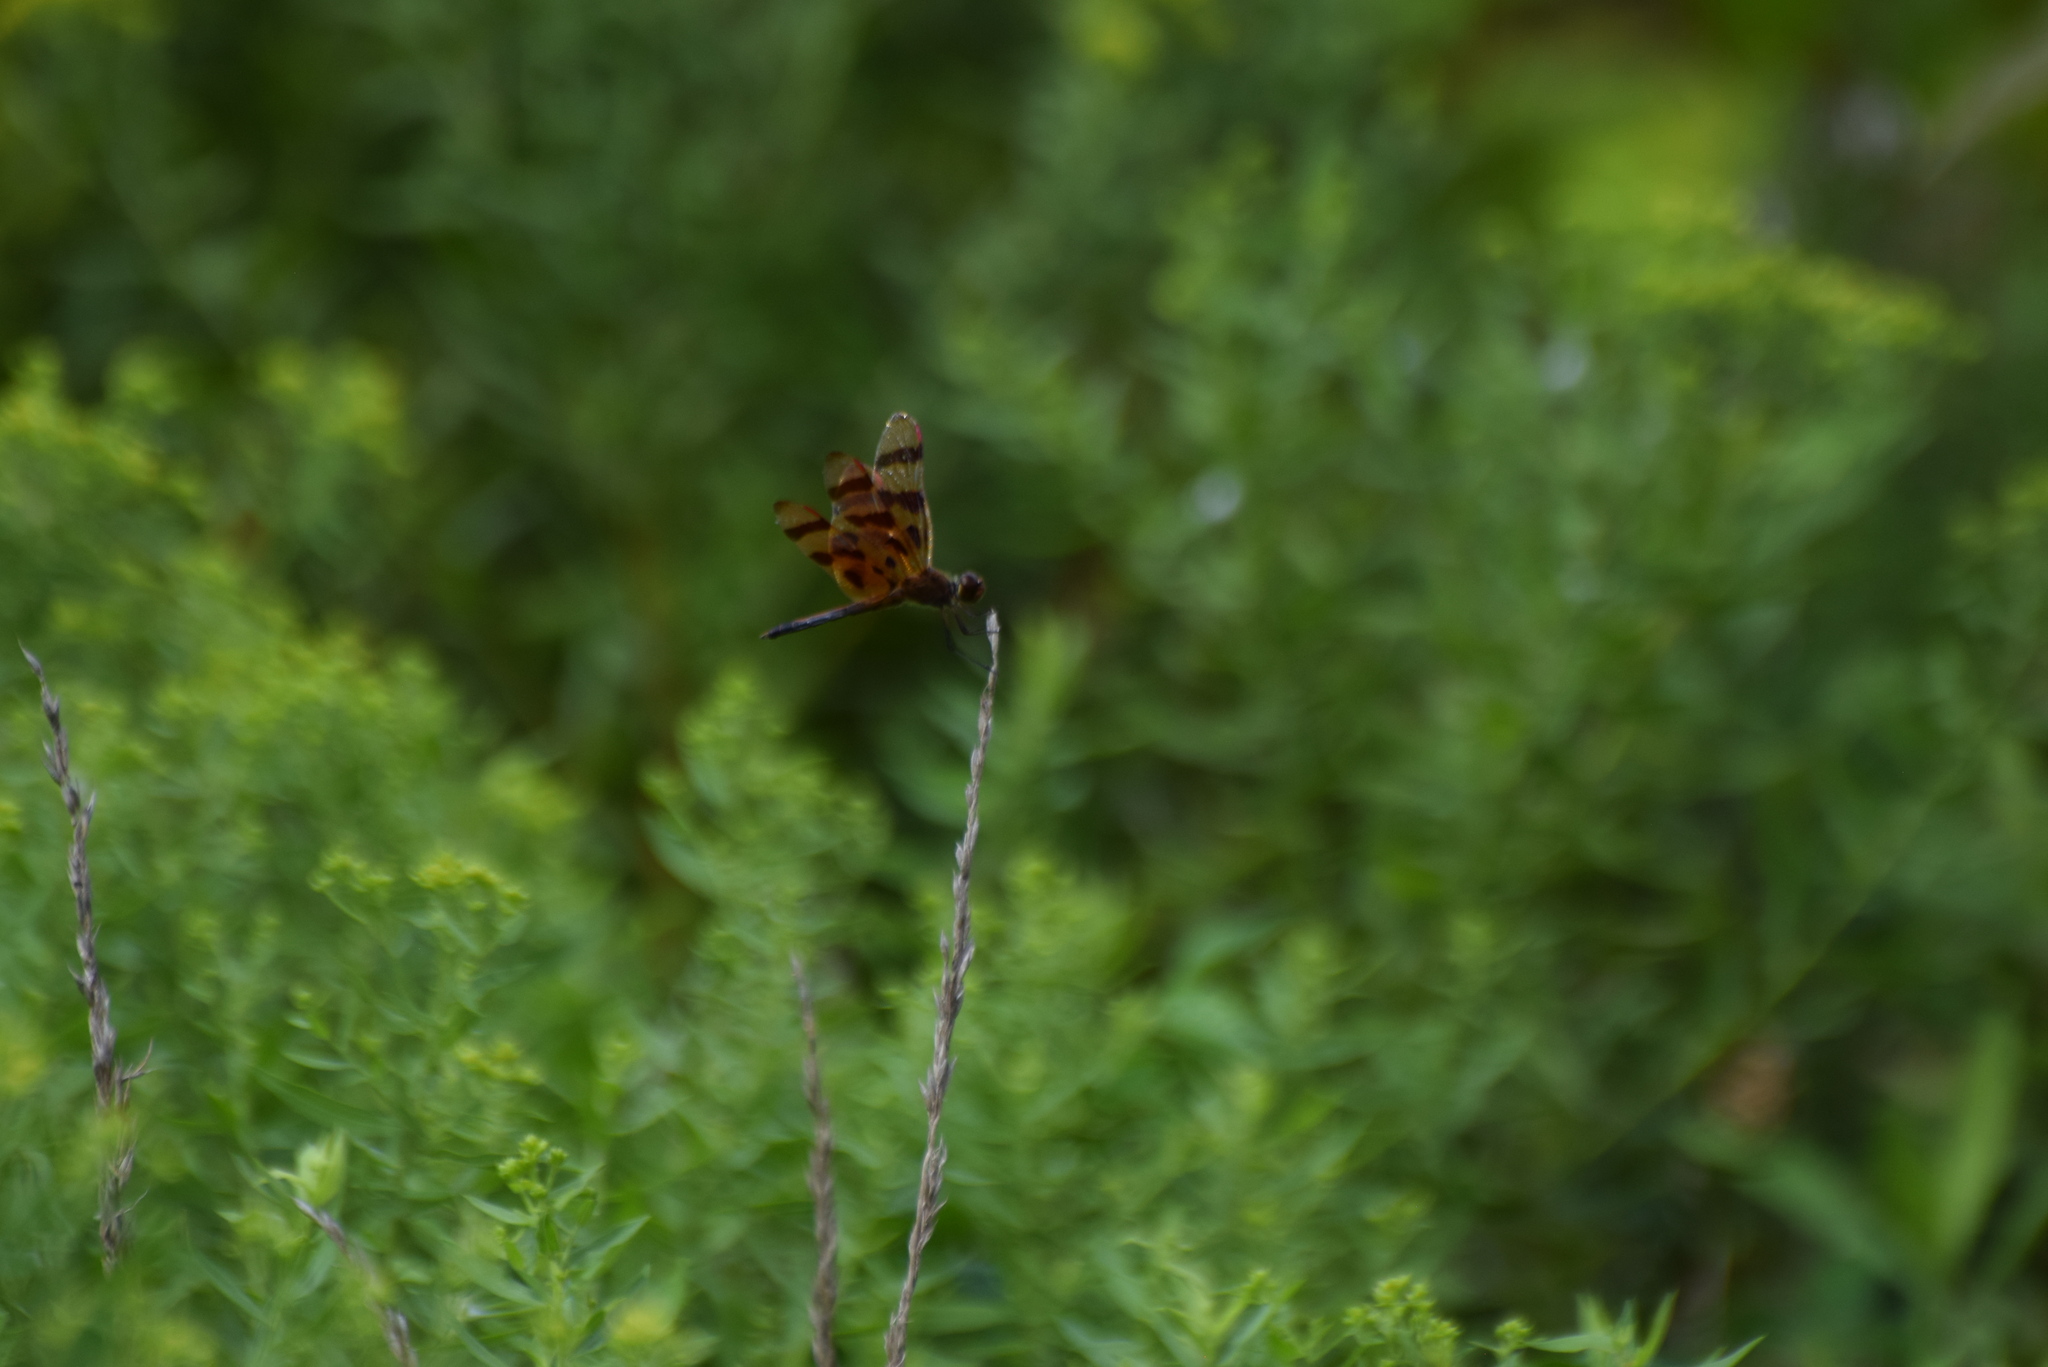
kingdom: Animalia
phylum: Arthropoda
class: Insecta
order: Odonata
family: Libellulidae
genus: Celithemis
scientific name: Celithemis eponina
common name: Halloween pennant
